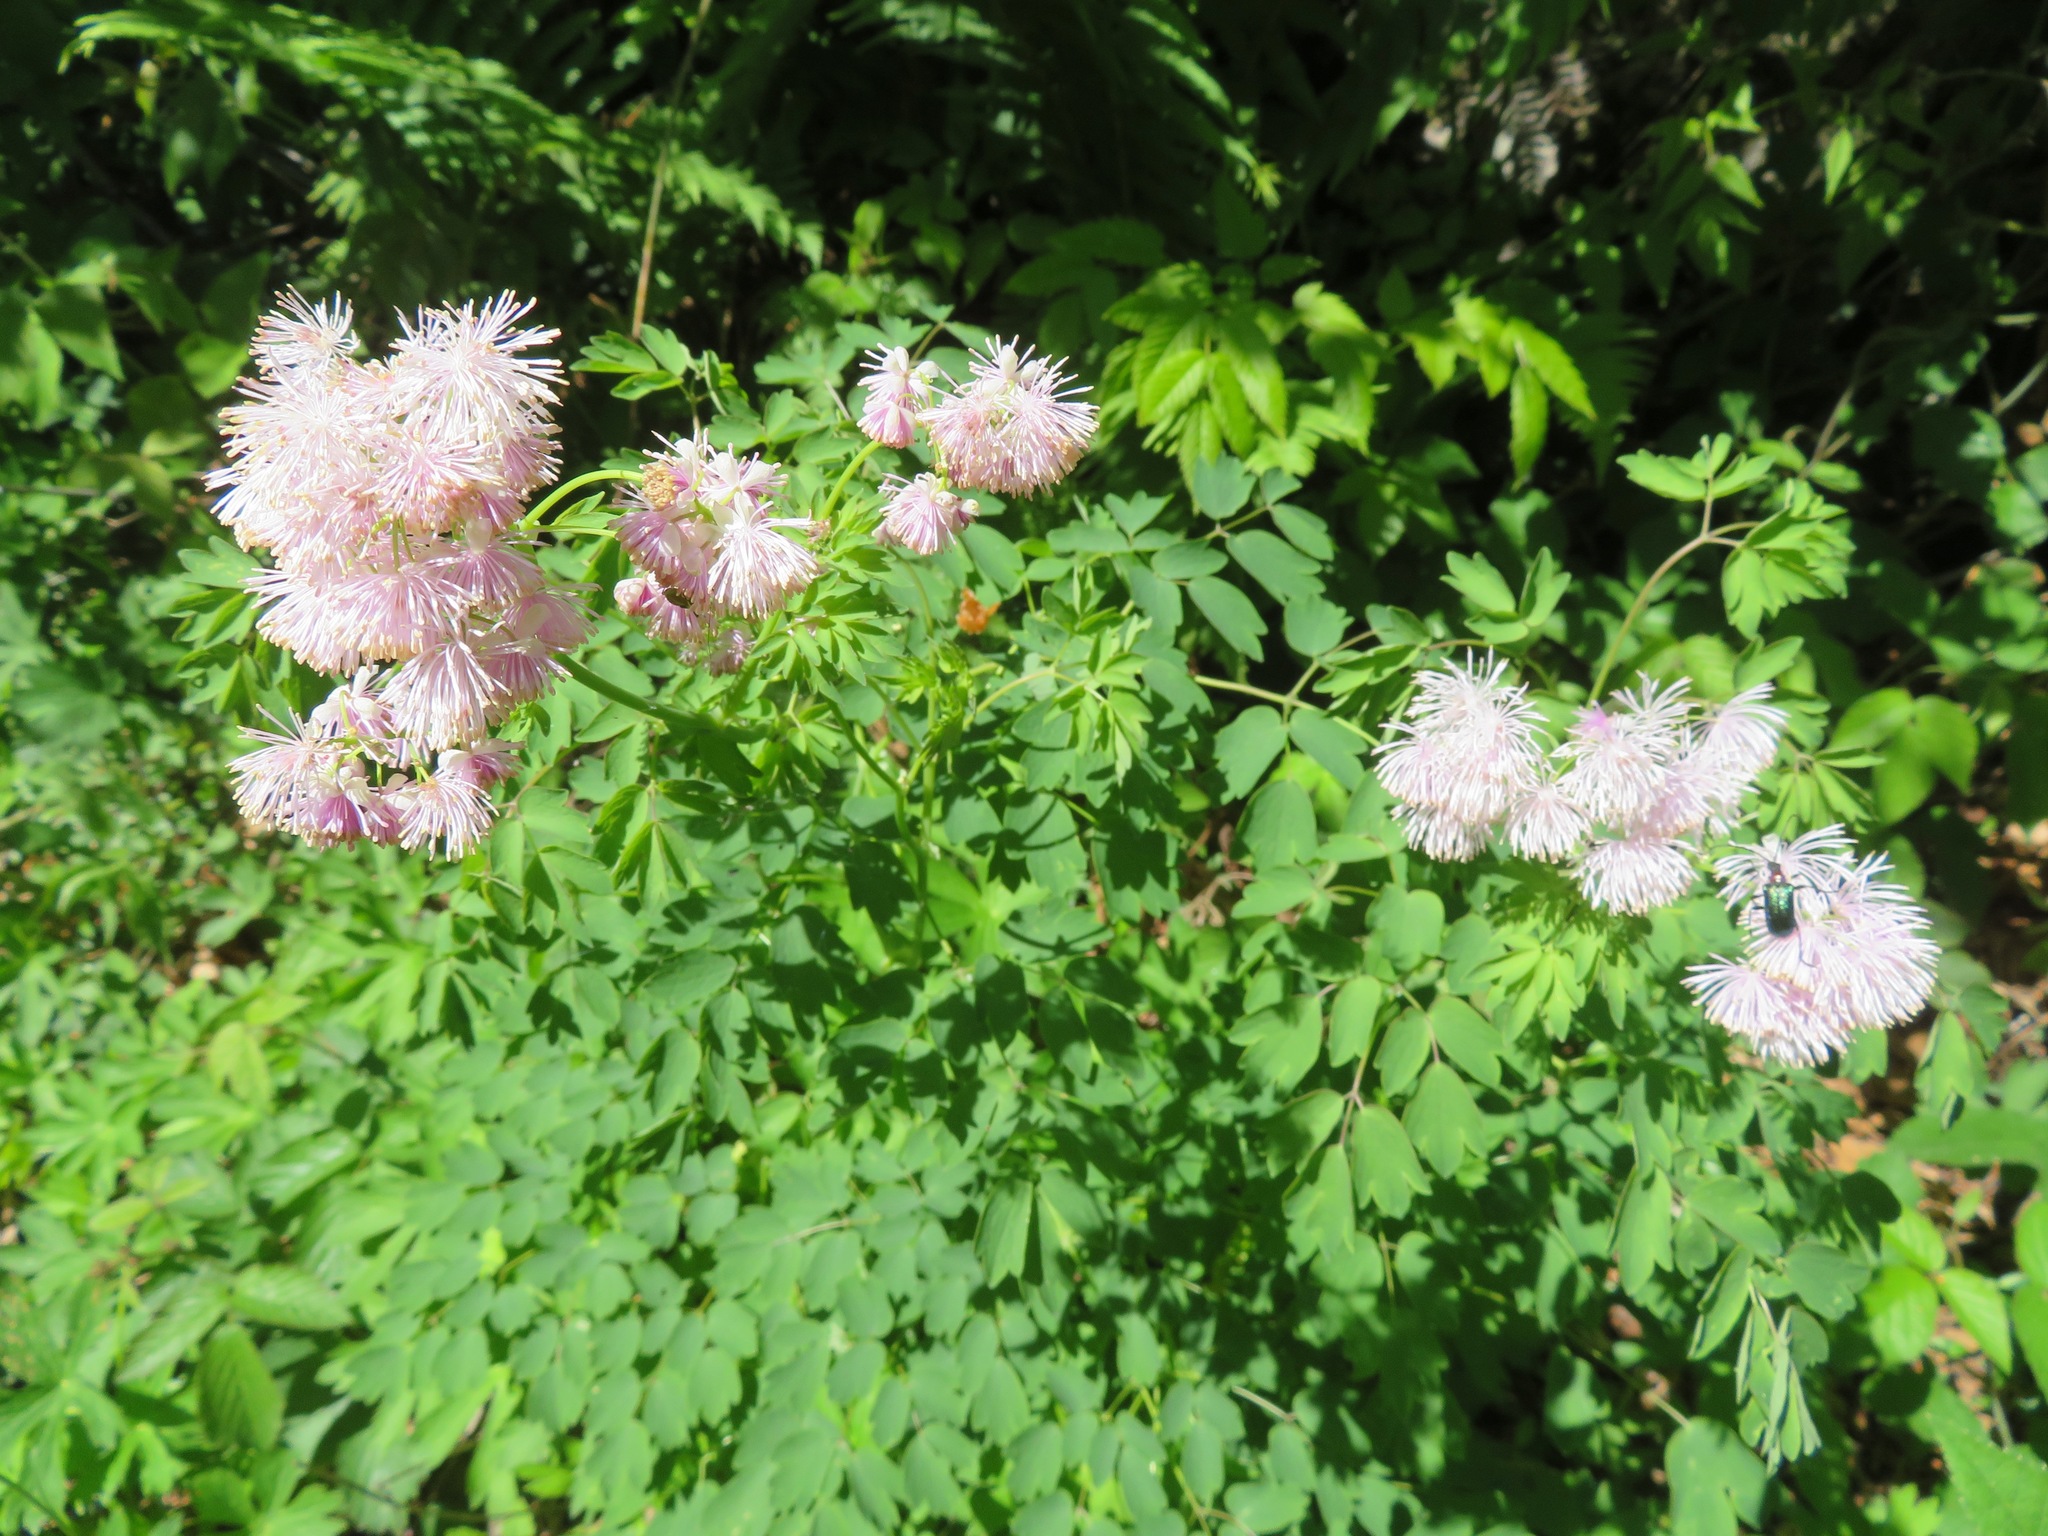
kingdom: Plantae
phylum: Tracheophyta
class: Magnoliopsida
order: Ranunculales
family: Ranunculaceae
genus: Thalictrum
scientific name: Thalictrum aquilegiifolium
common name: French meadow-rue
